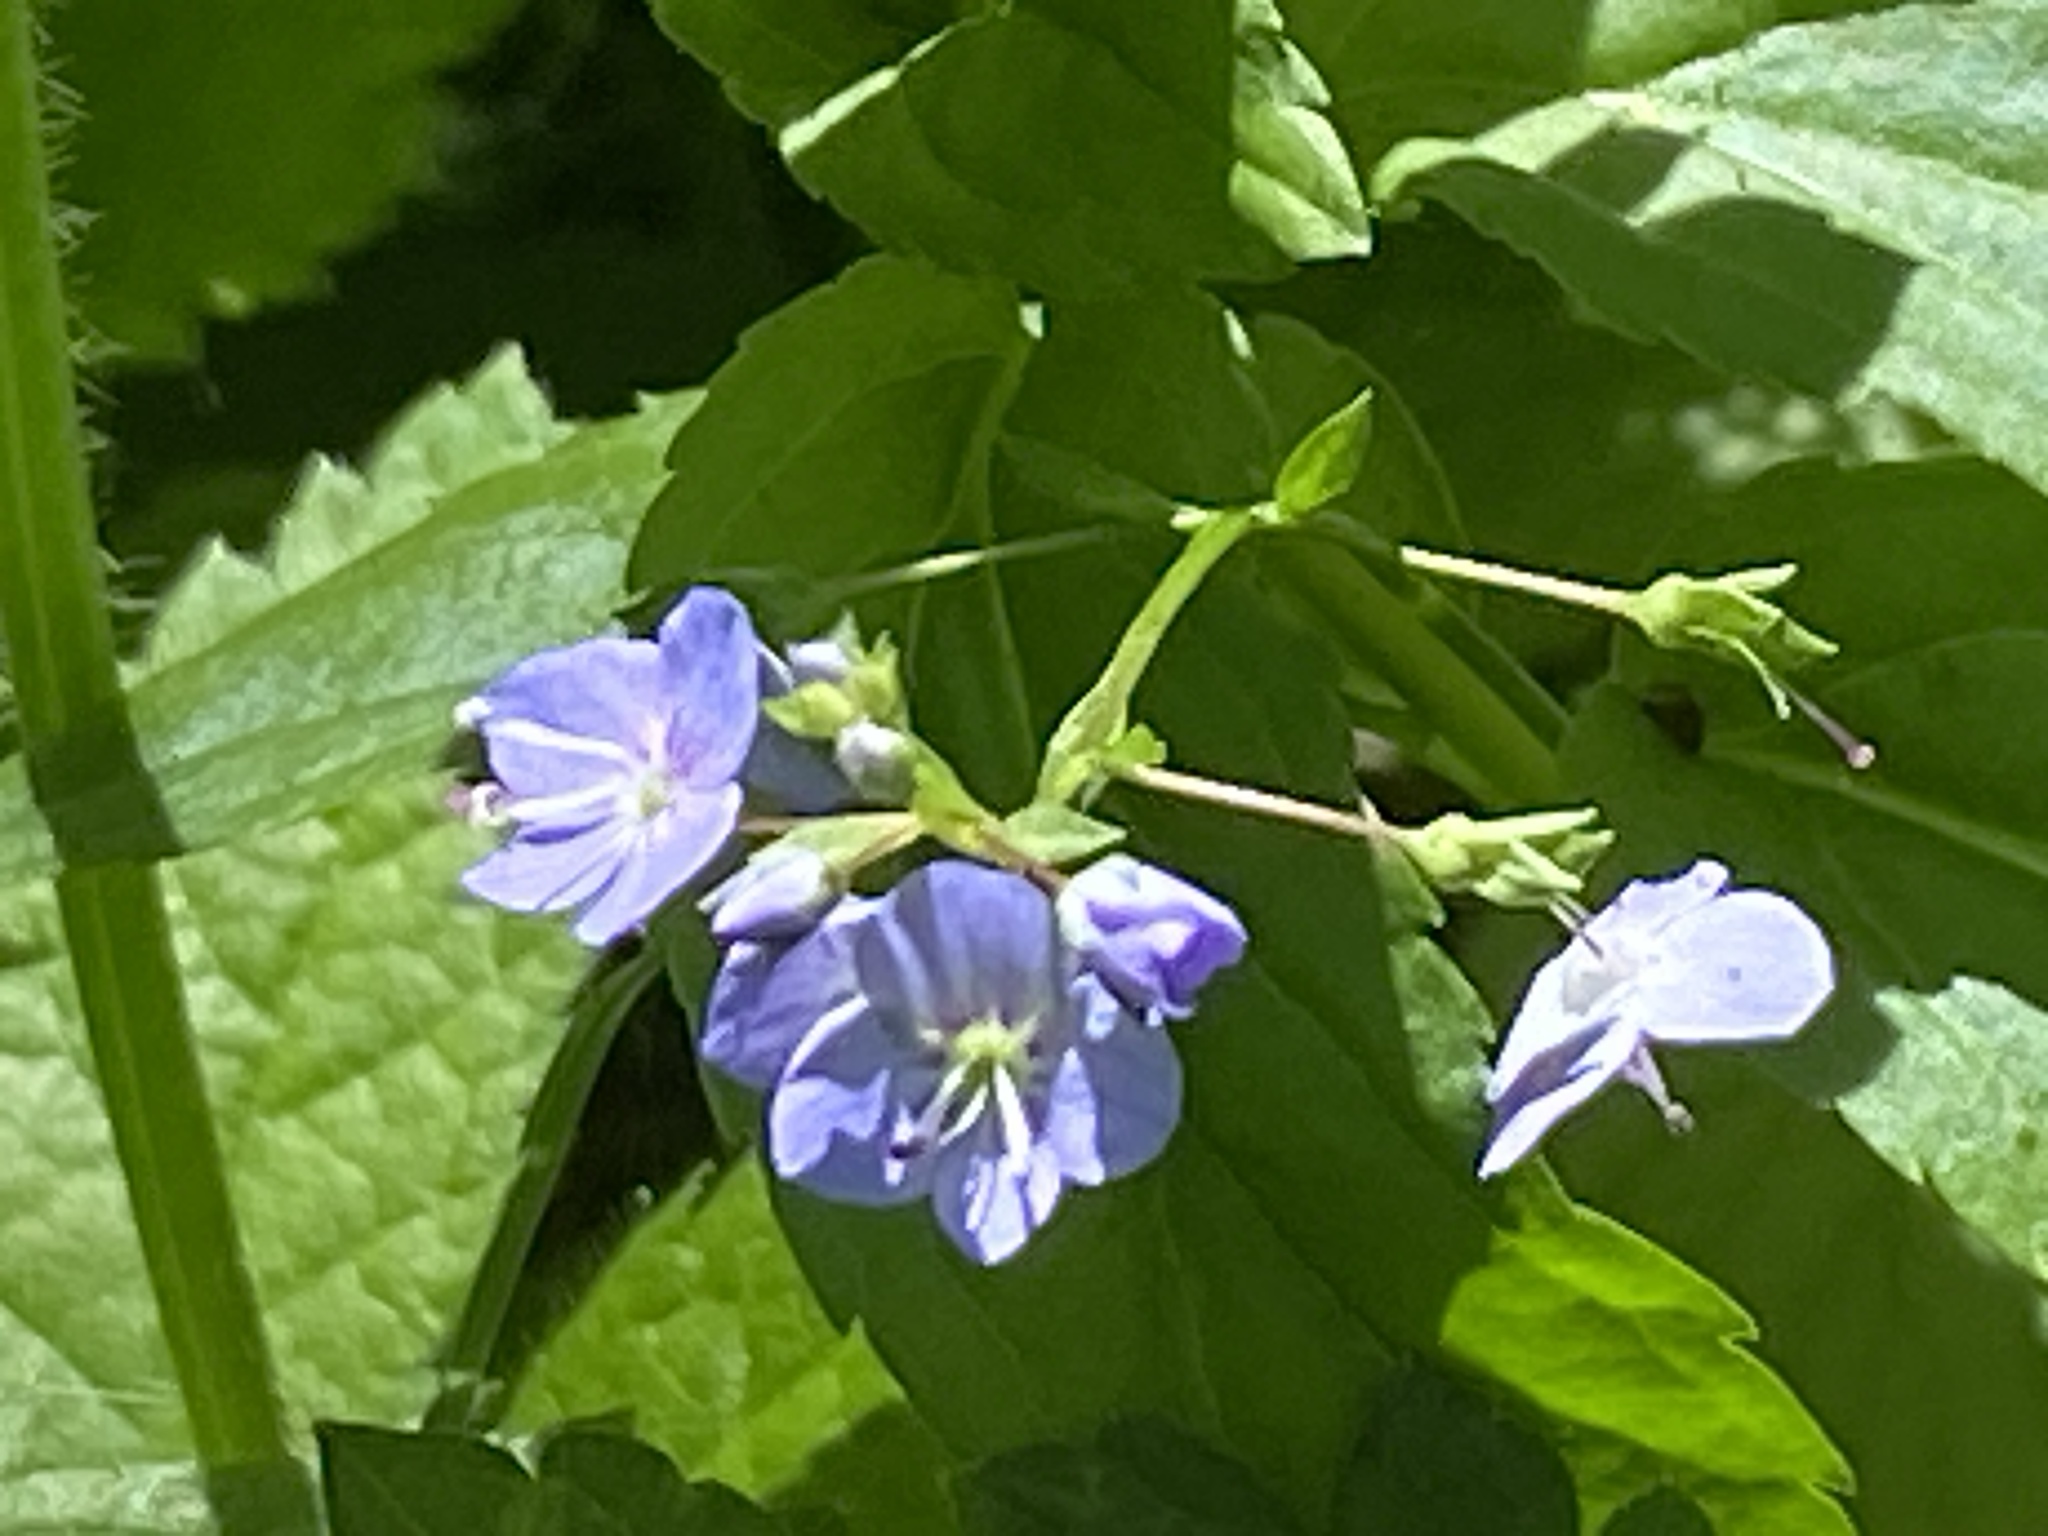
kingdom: Plantae
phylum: Tracheophyta
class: Magnoliopsida
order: Lamiales
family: Plantaginaceae
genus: Veronica
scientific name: Veronica americana
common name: American brooklime
